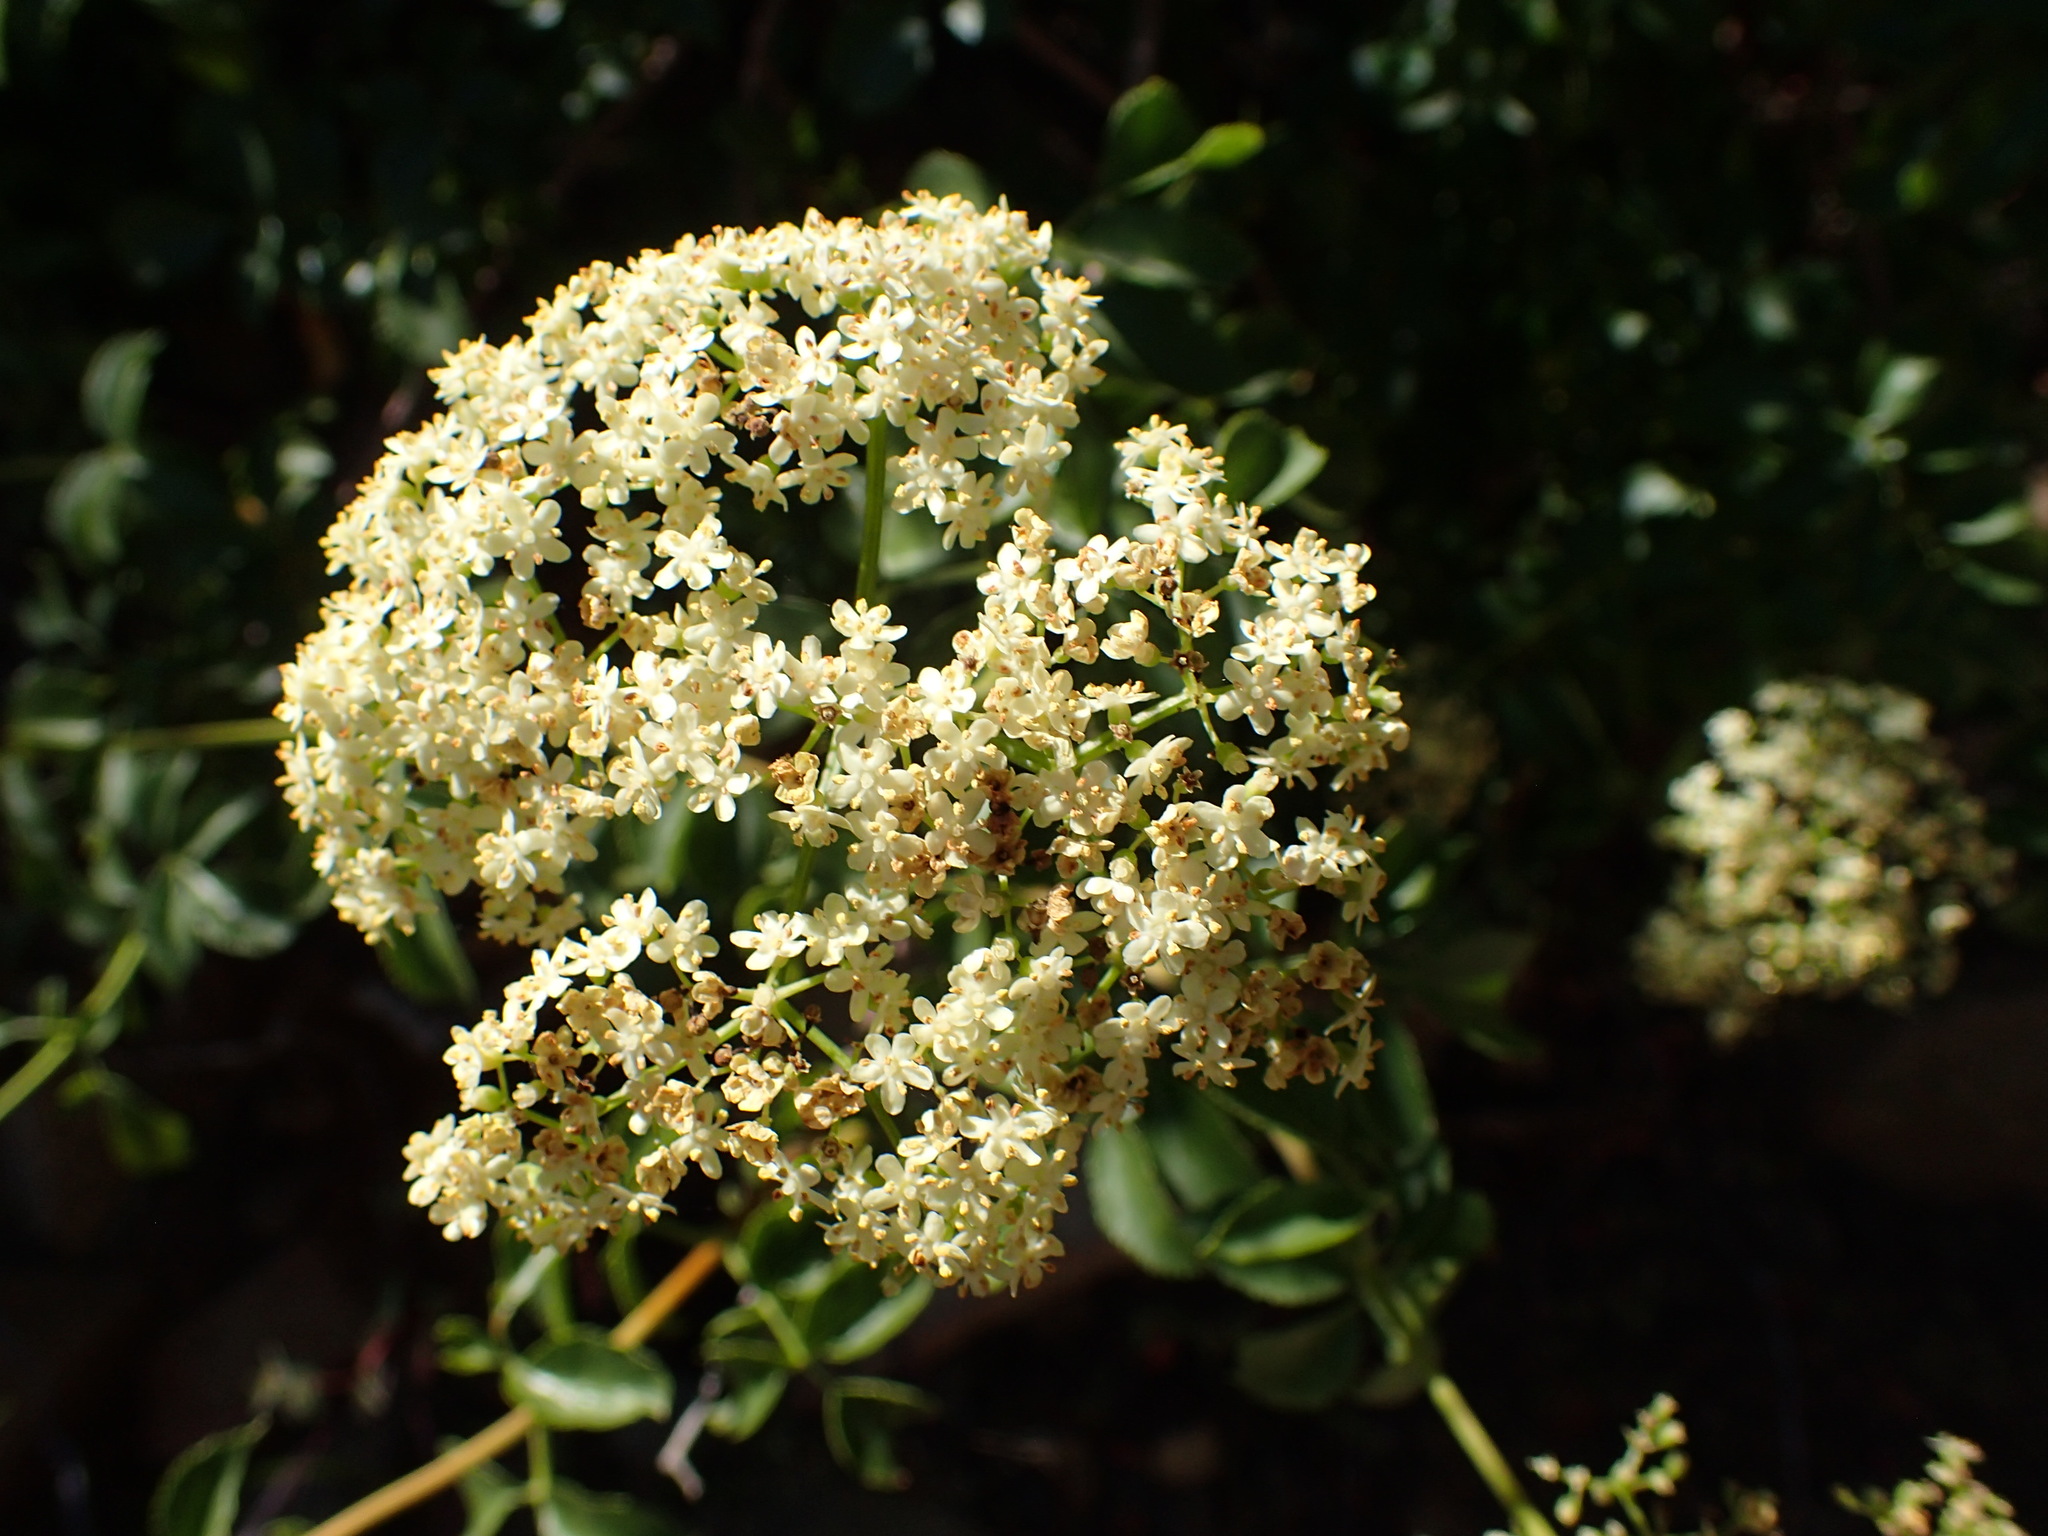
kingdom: Plantae
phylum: Tracheophyta
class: Magnoliopsida
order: Dipsacales
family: Viburnaceae
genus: Sambucus
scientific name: Sambucus cerulea
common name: Blue elder
